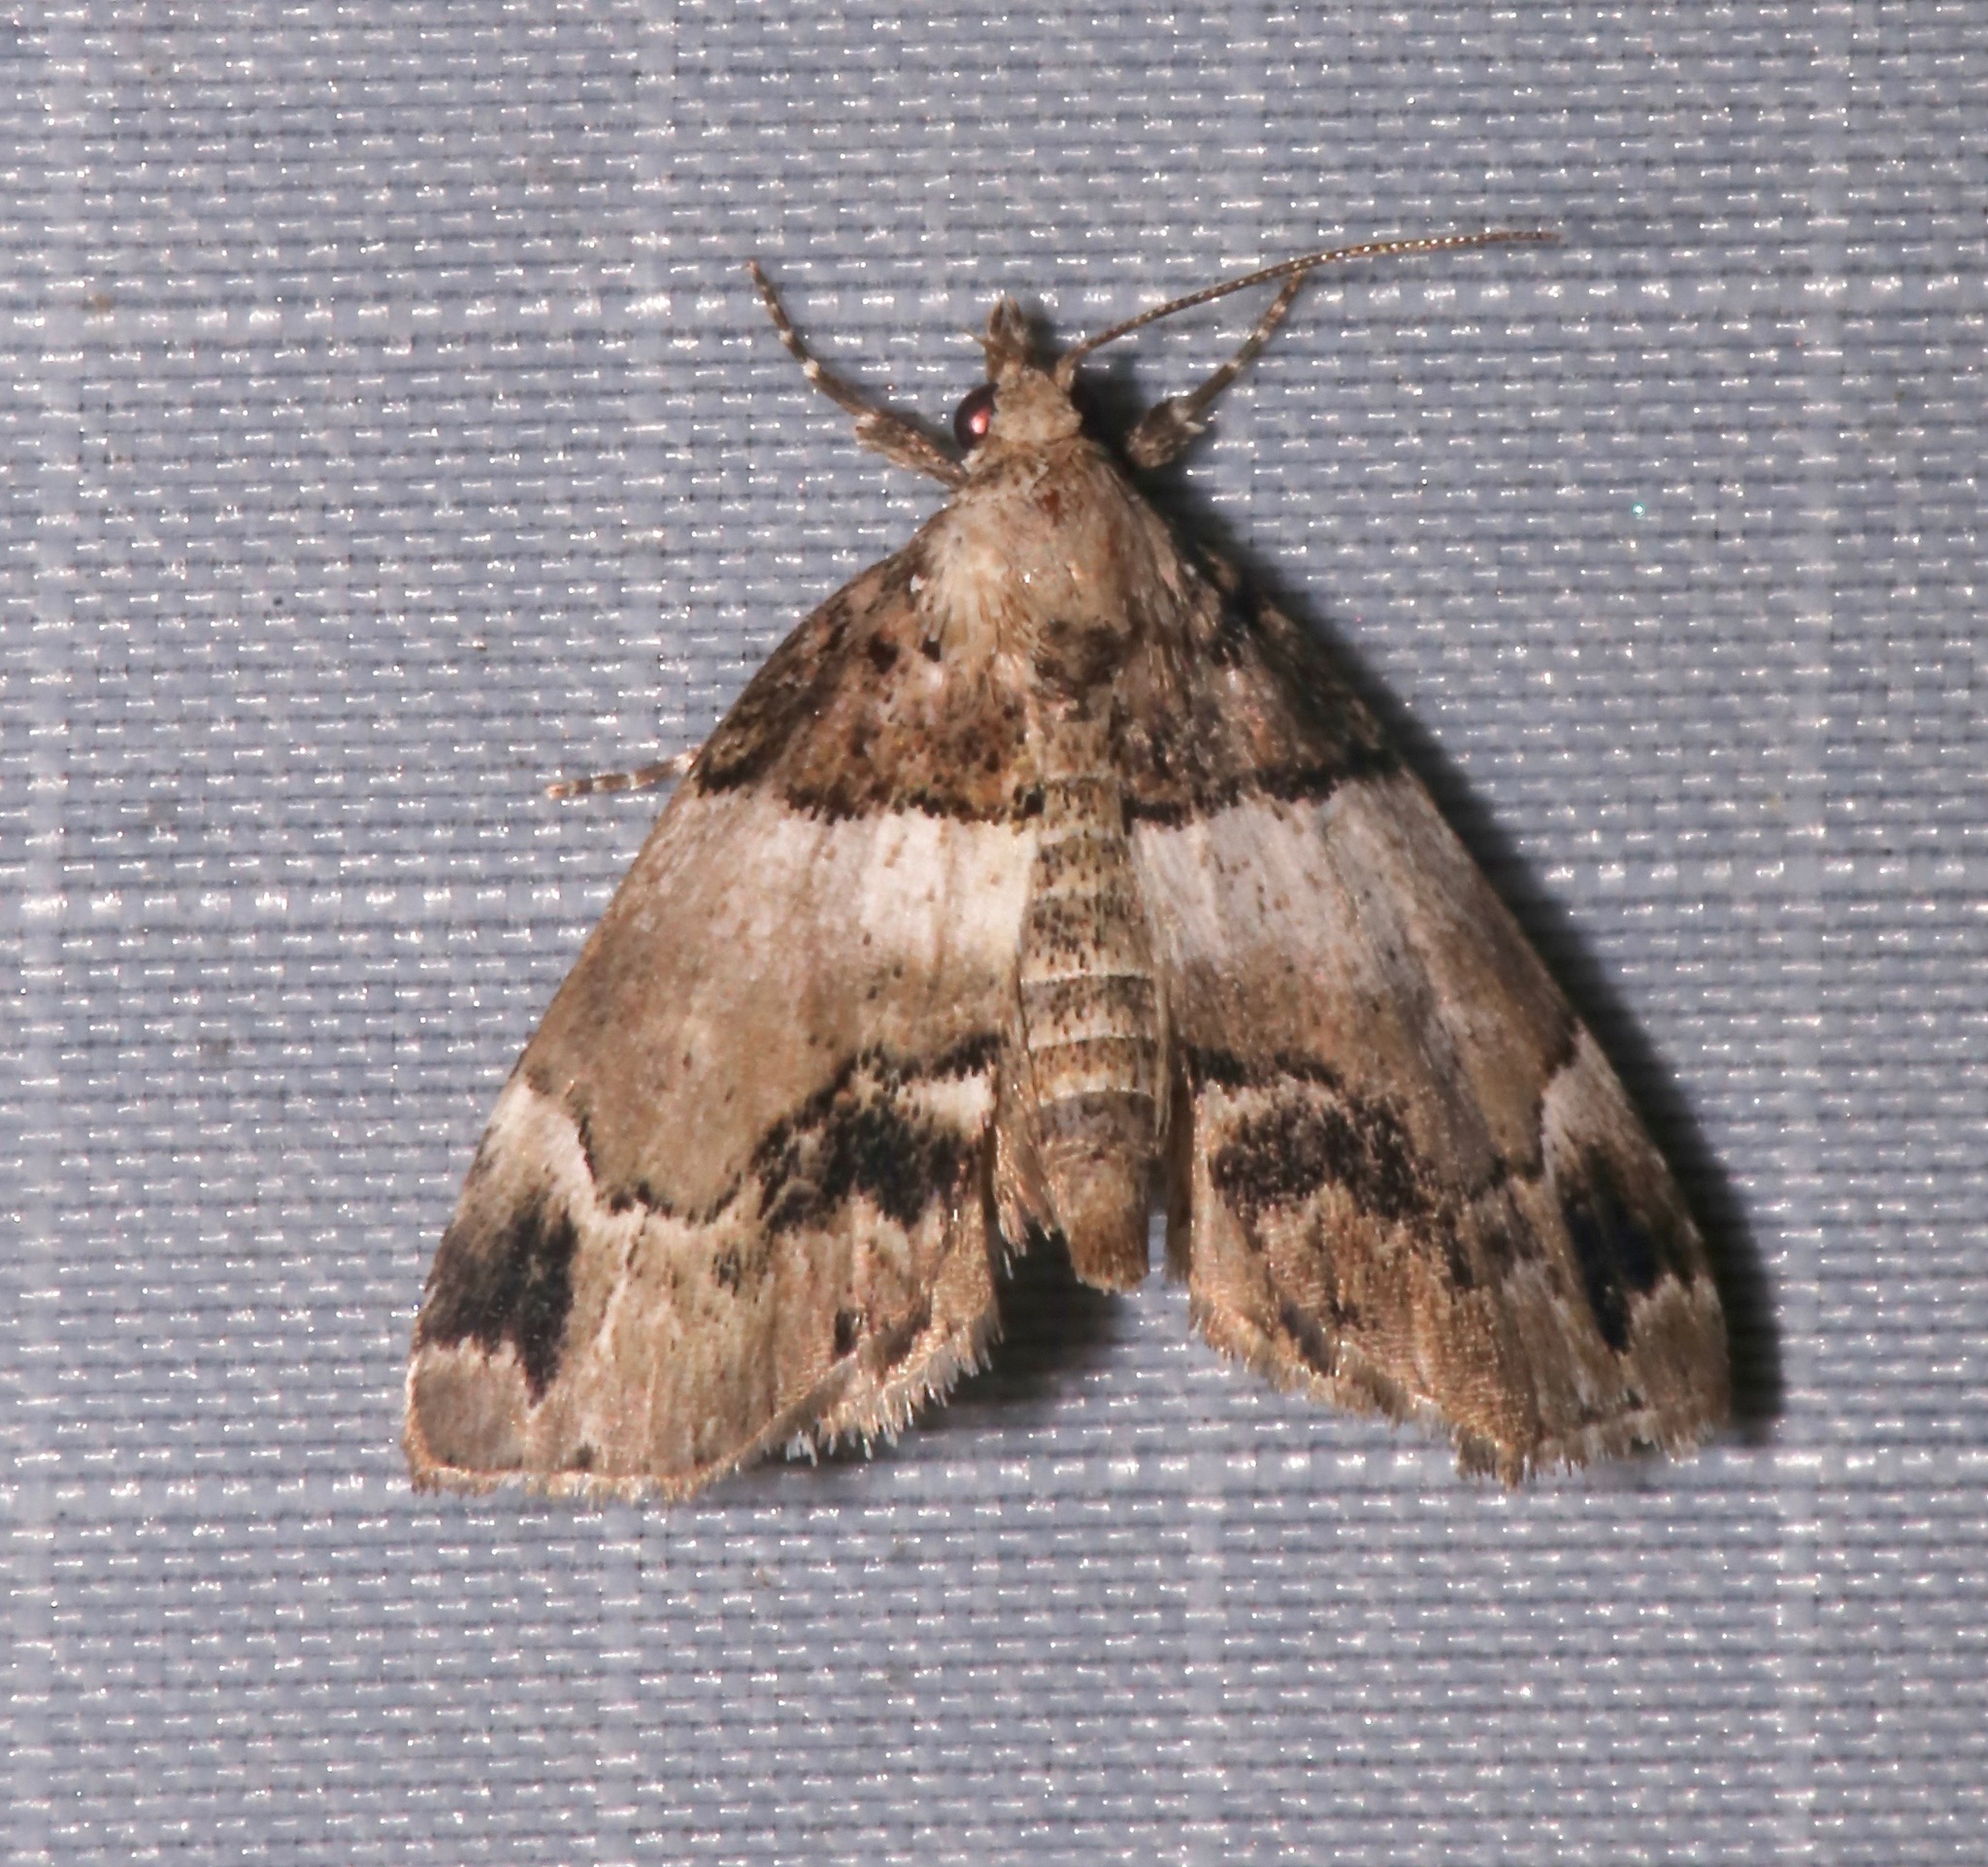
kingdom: Animalia
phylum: Arthropoda
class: Insecta
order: Lepidoptera
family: Erebidae
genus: Cutina
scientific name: Cutina distincta
